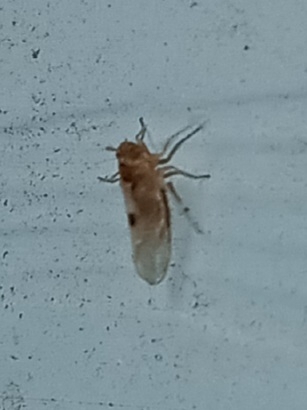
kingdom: Animalia
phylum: Arthropoda
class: Insecta
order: Hemiptera
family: Delphacidae
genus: Chionomus
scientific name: Chionomus
